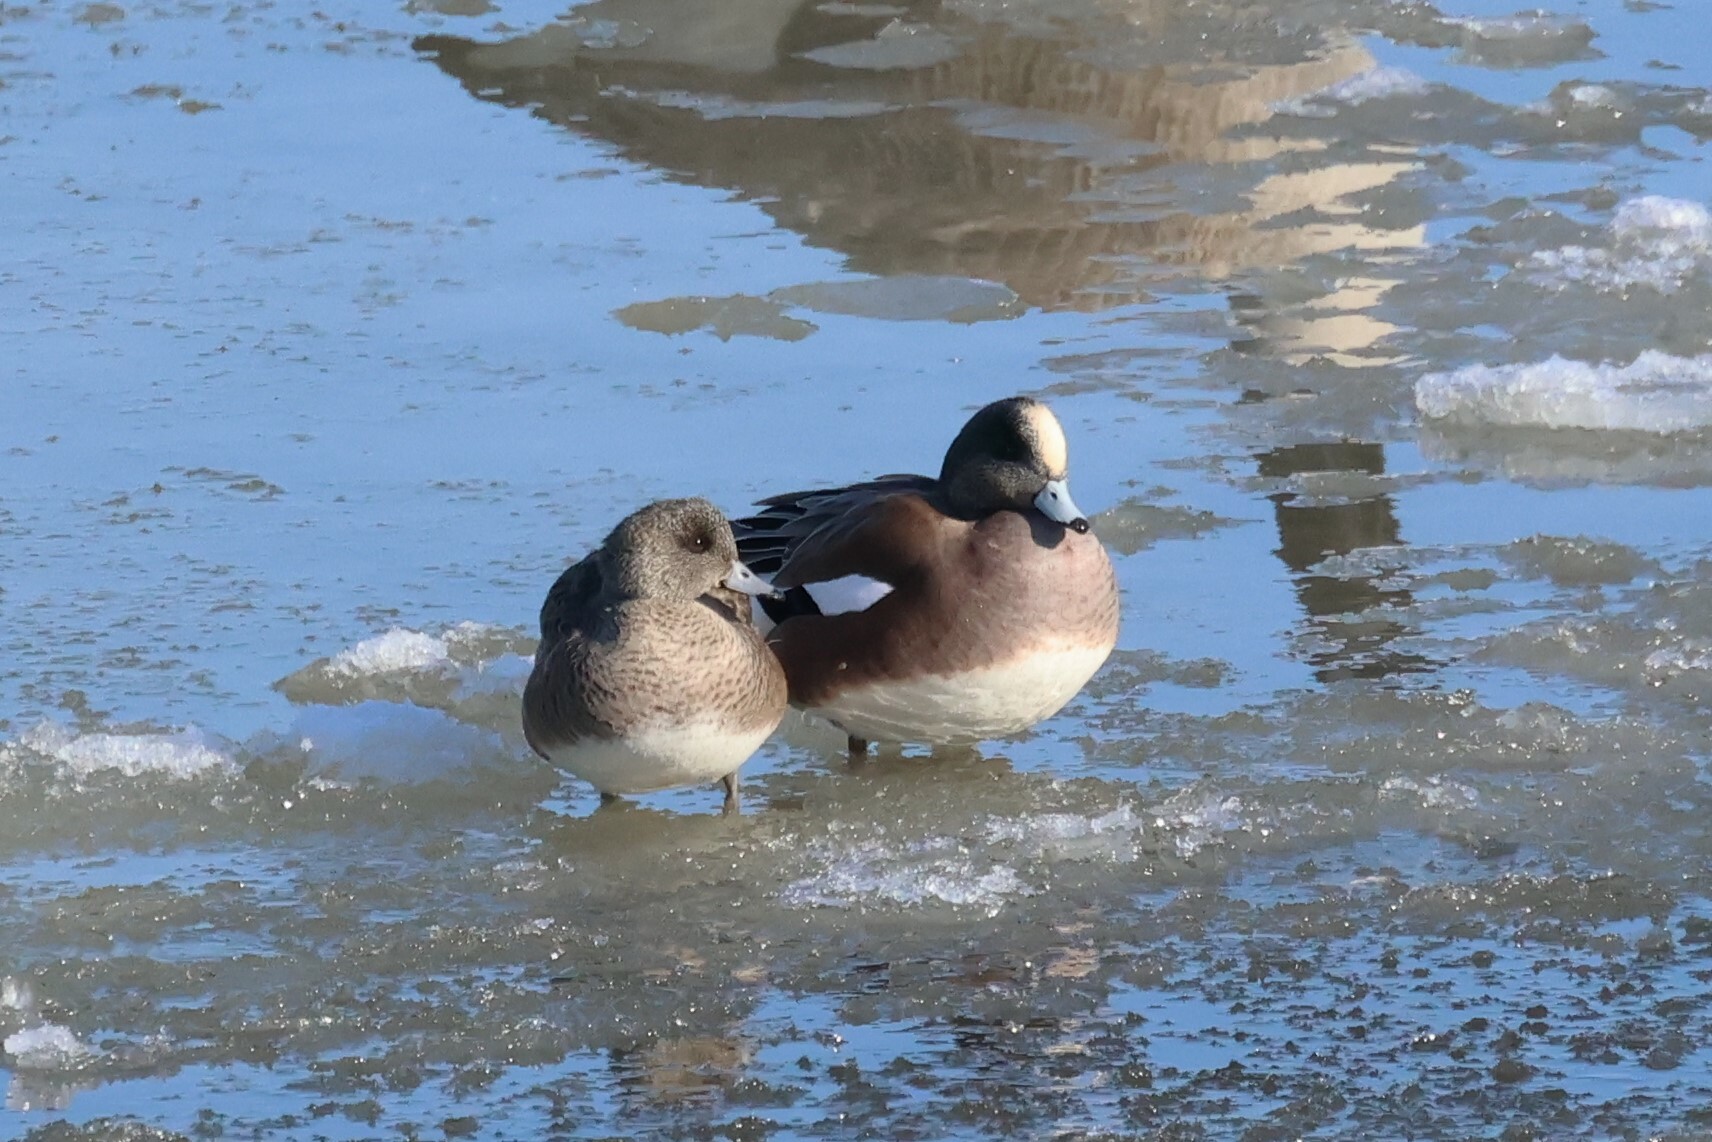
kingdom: Animalia
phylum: Chordata
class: Aves
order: Anseriformes
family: Anatidae
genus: Mareca
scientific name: Mareca americana
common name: American wigeon
